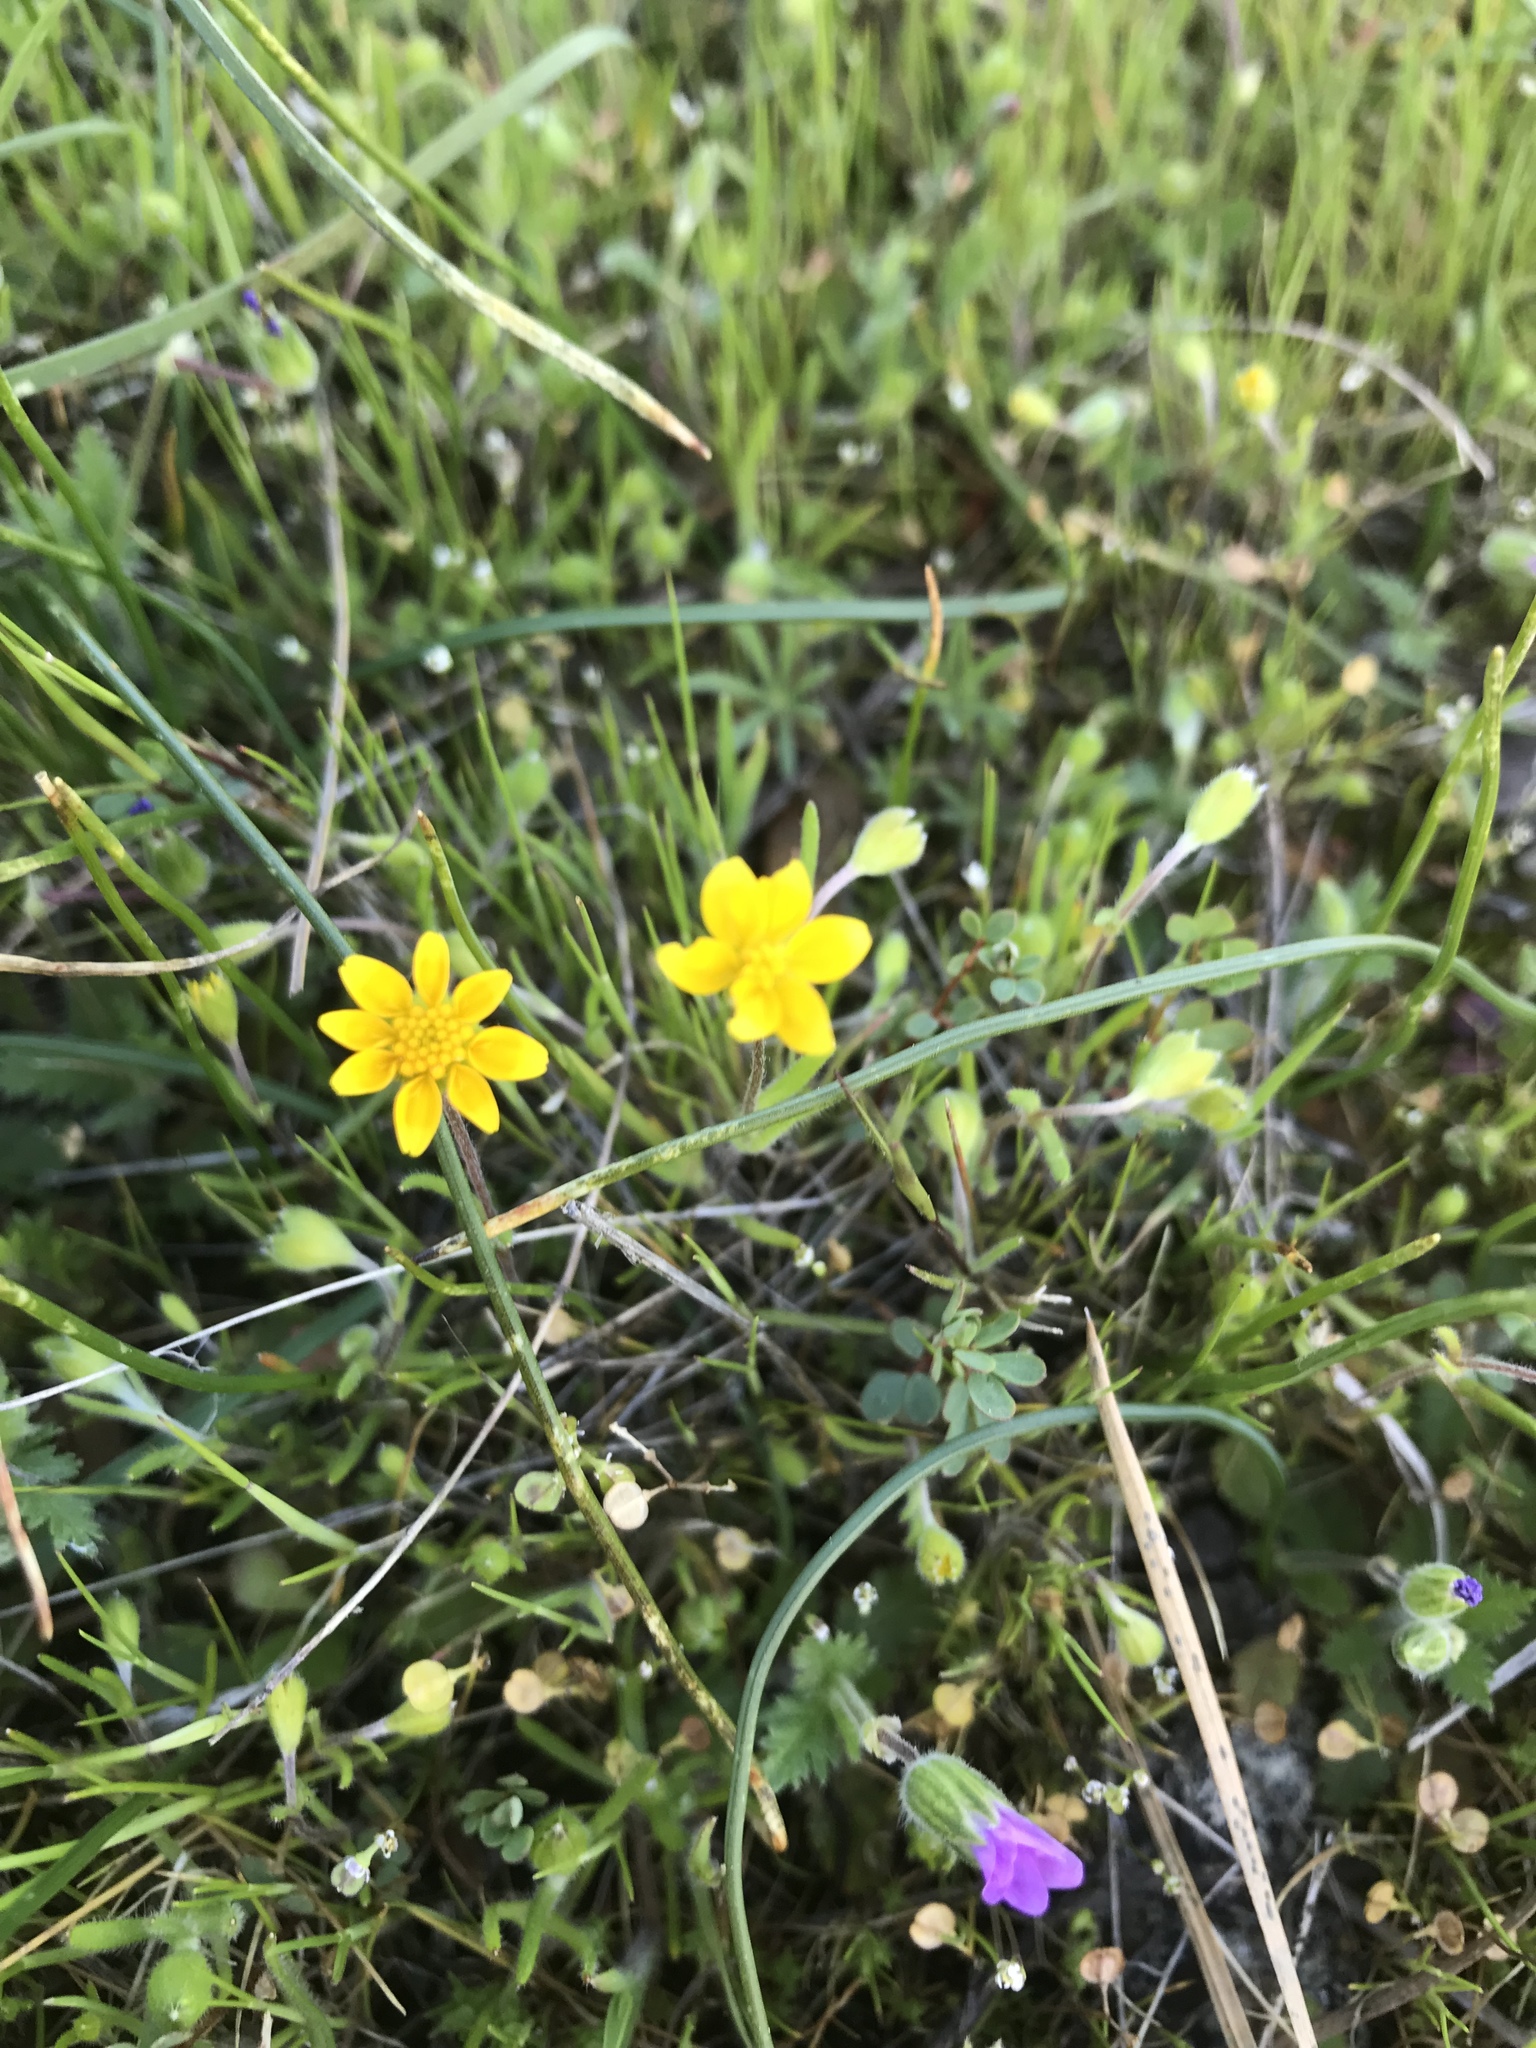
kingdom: Plantae
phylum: Tracheophyta
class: Magnoliopsida
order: Ranunculales
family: Ranunculaceae
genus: Ranunculus
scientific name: Ranunculus californicus
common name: California buttercup
